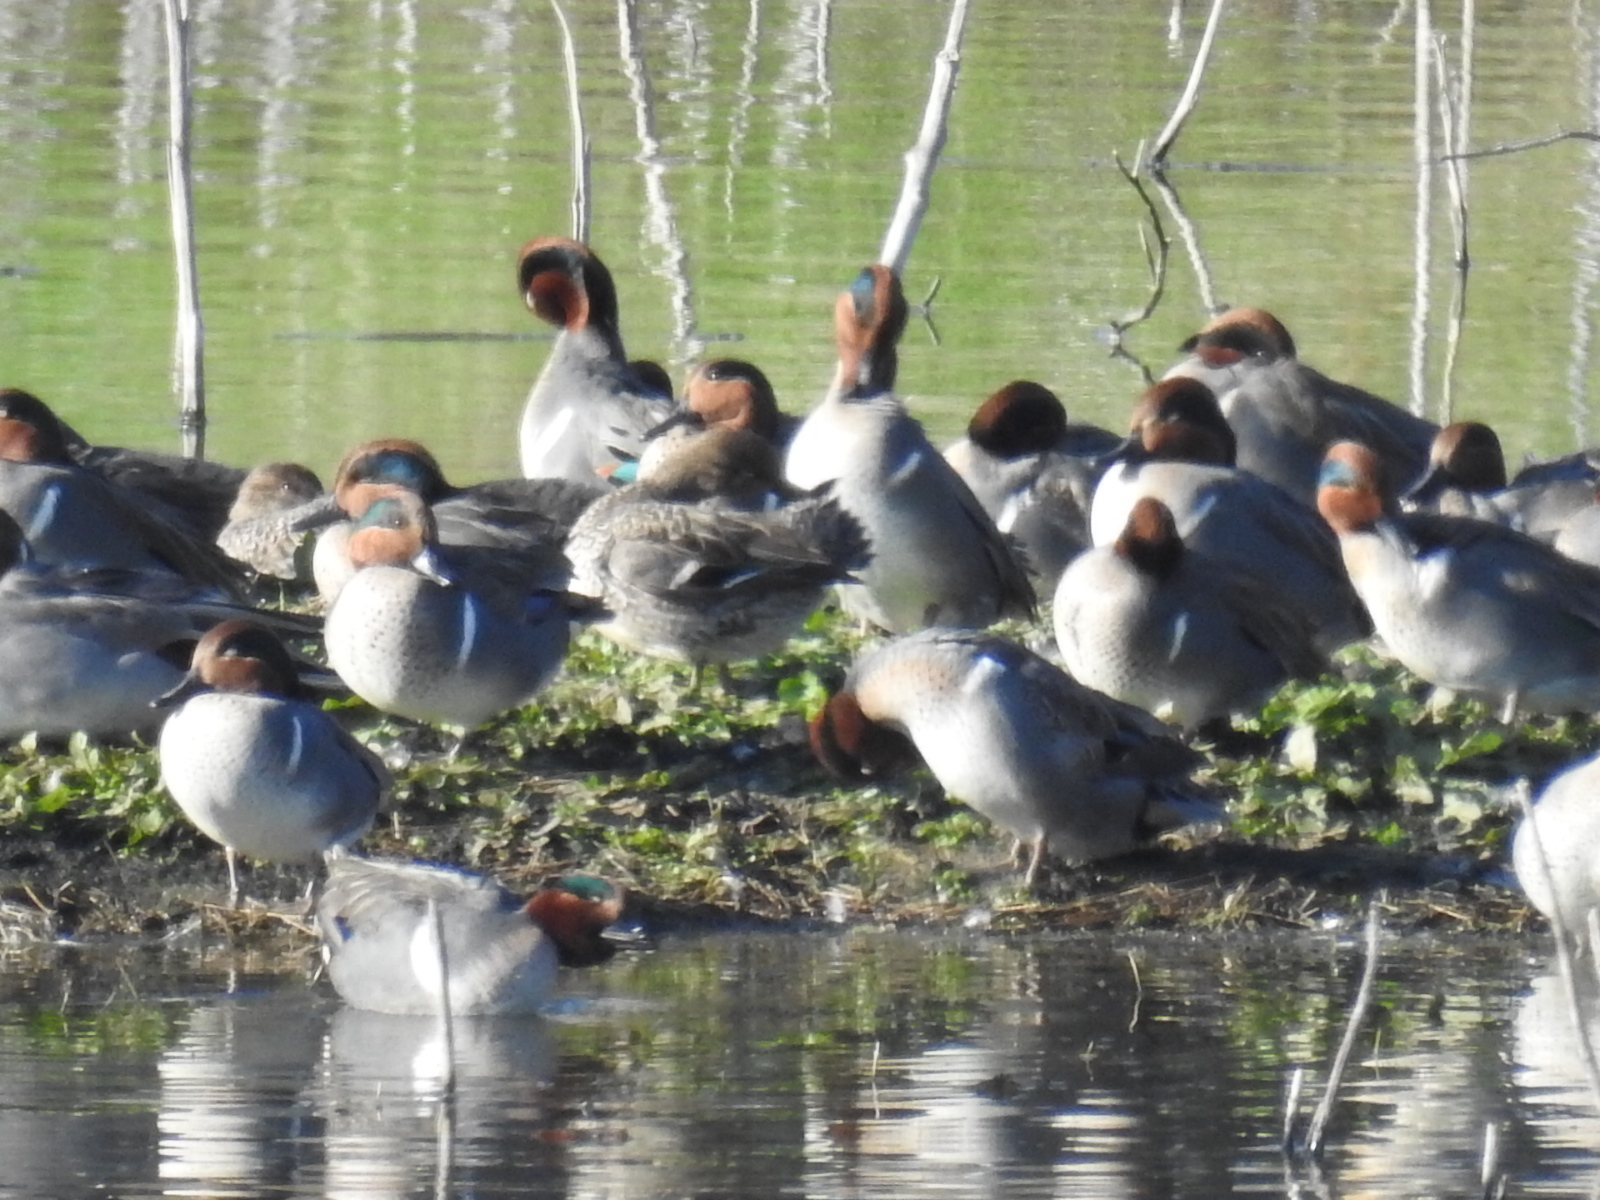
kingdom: Animalia
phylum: Chordata
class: Aves
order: Anseriformes
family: Anatidae
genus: Anas
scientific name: Anas crecca
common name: Eurasian teal
